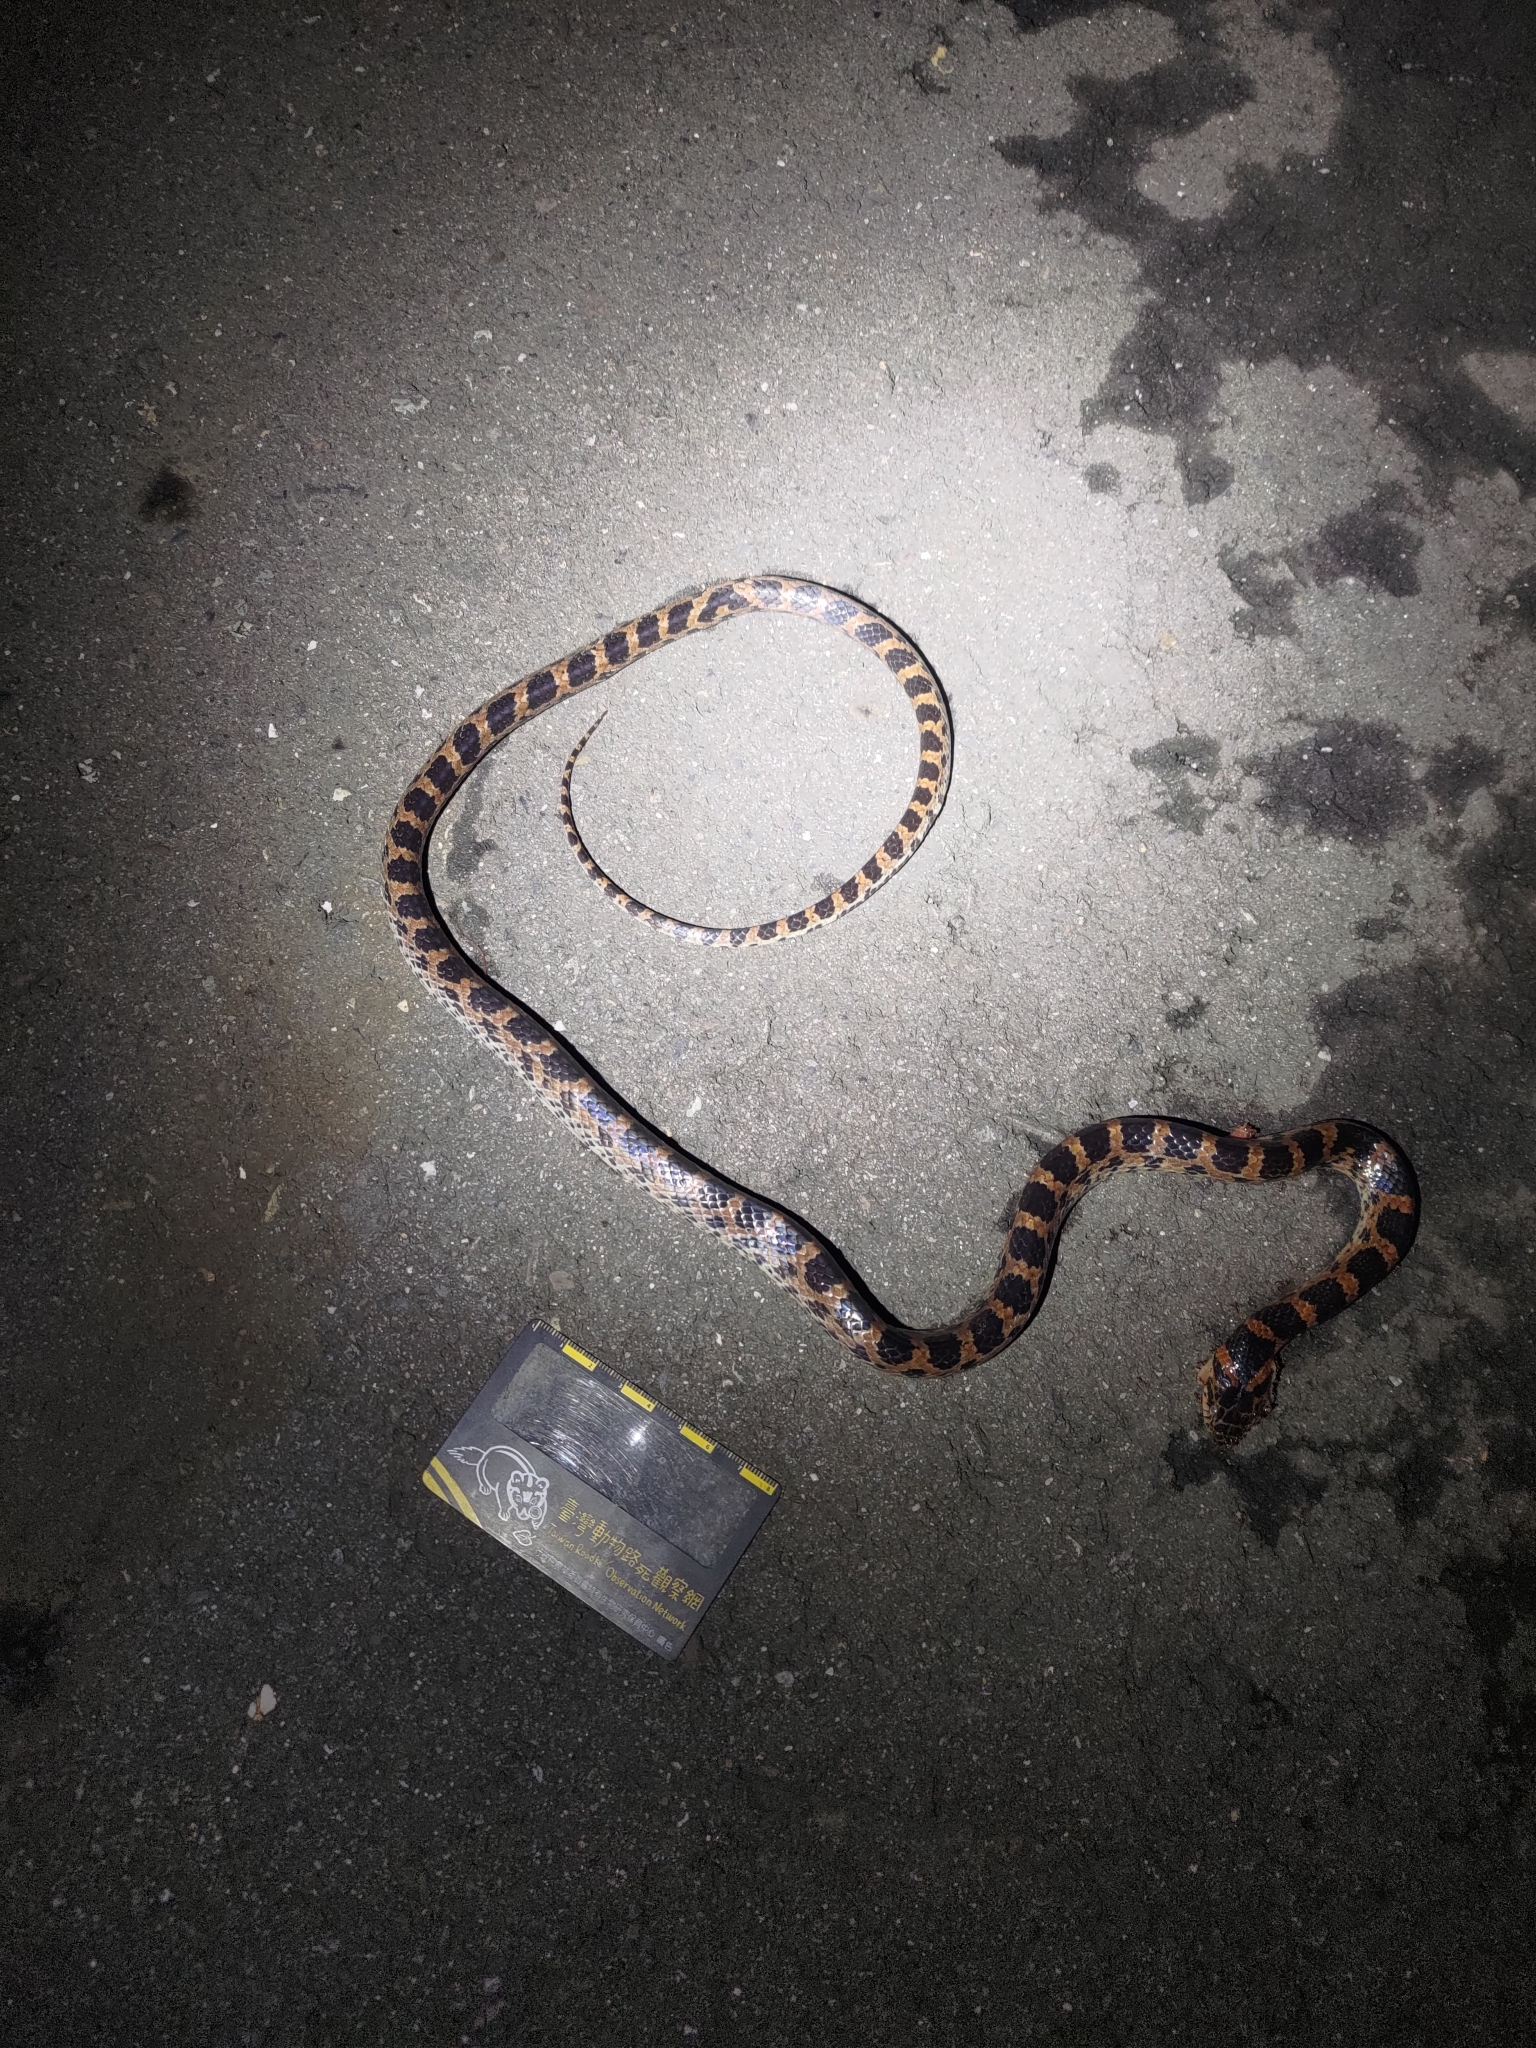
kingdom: Animalia
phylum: Chordata
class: Squamata
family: Colubridae
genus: Lycodon
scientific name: Lycodon rufozonatus
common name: Red-banded snake
